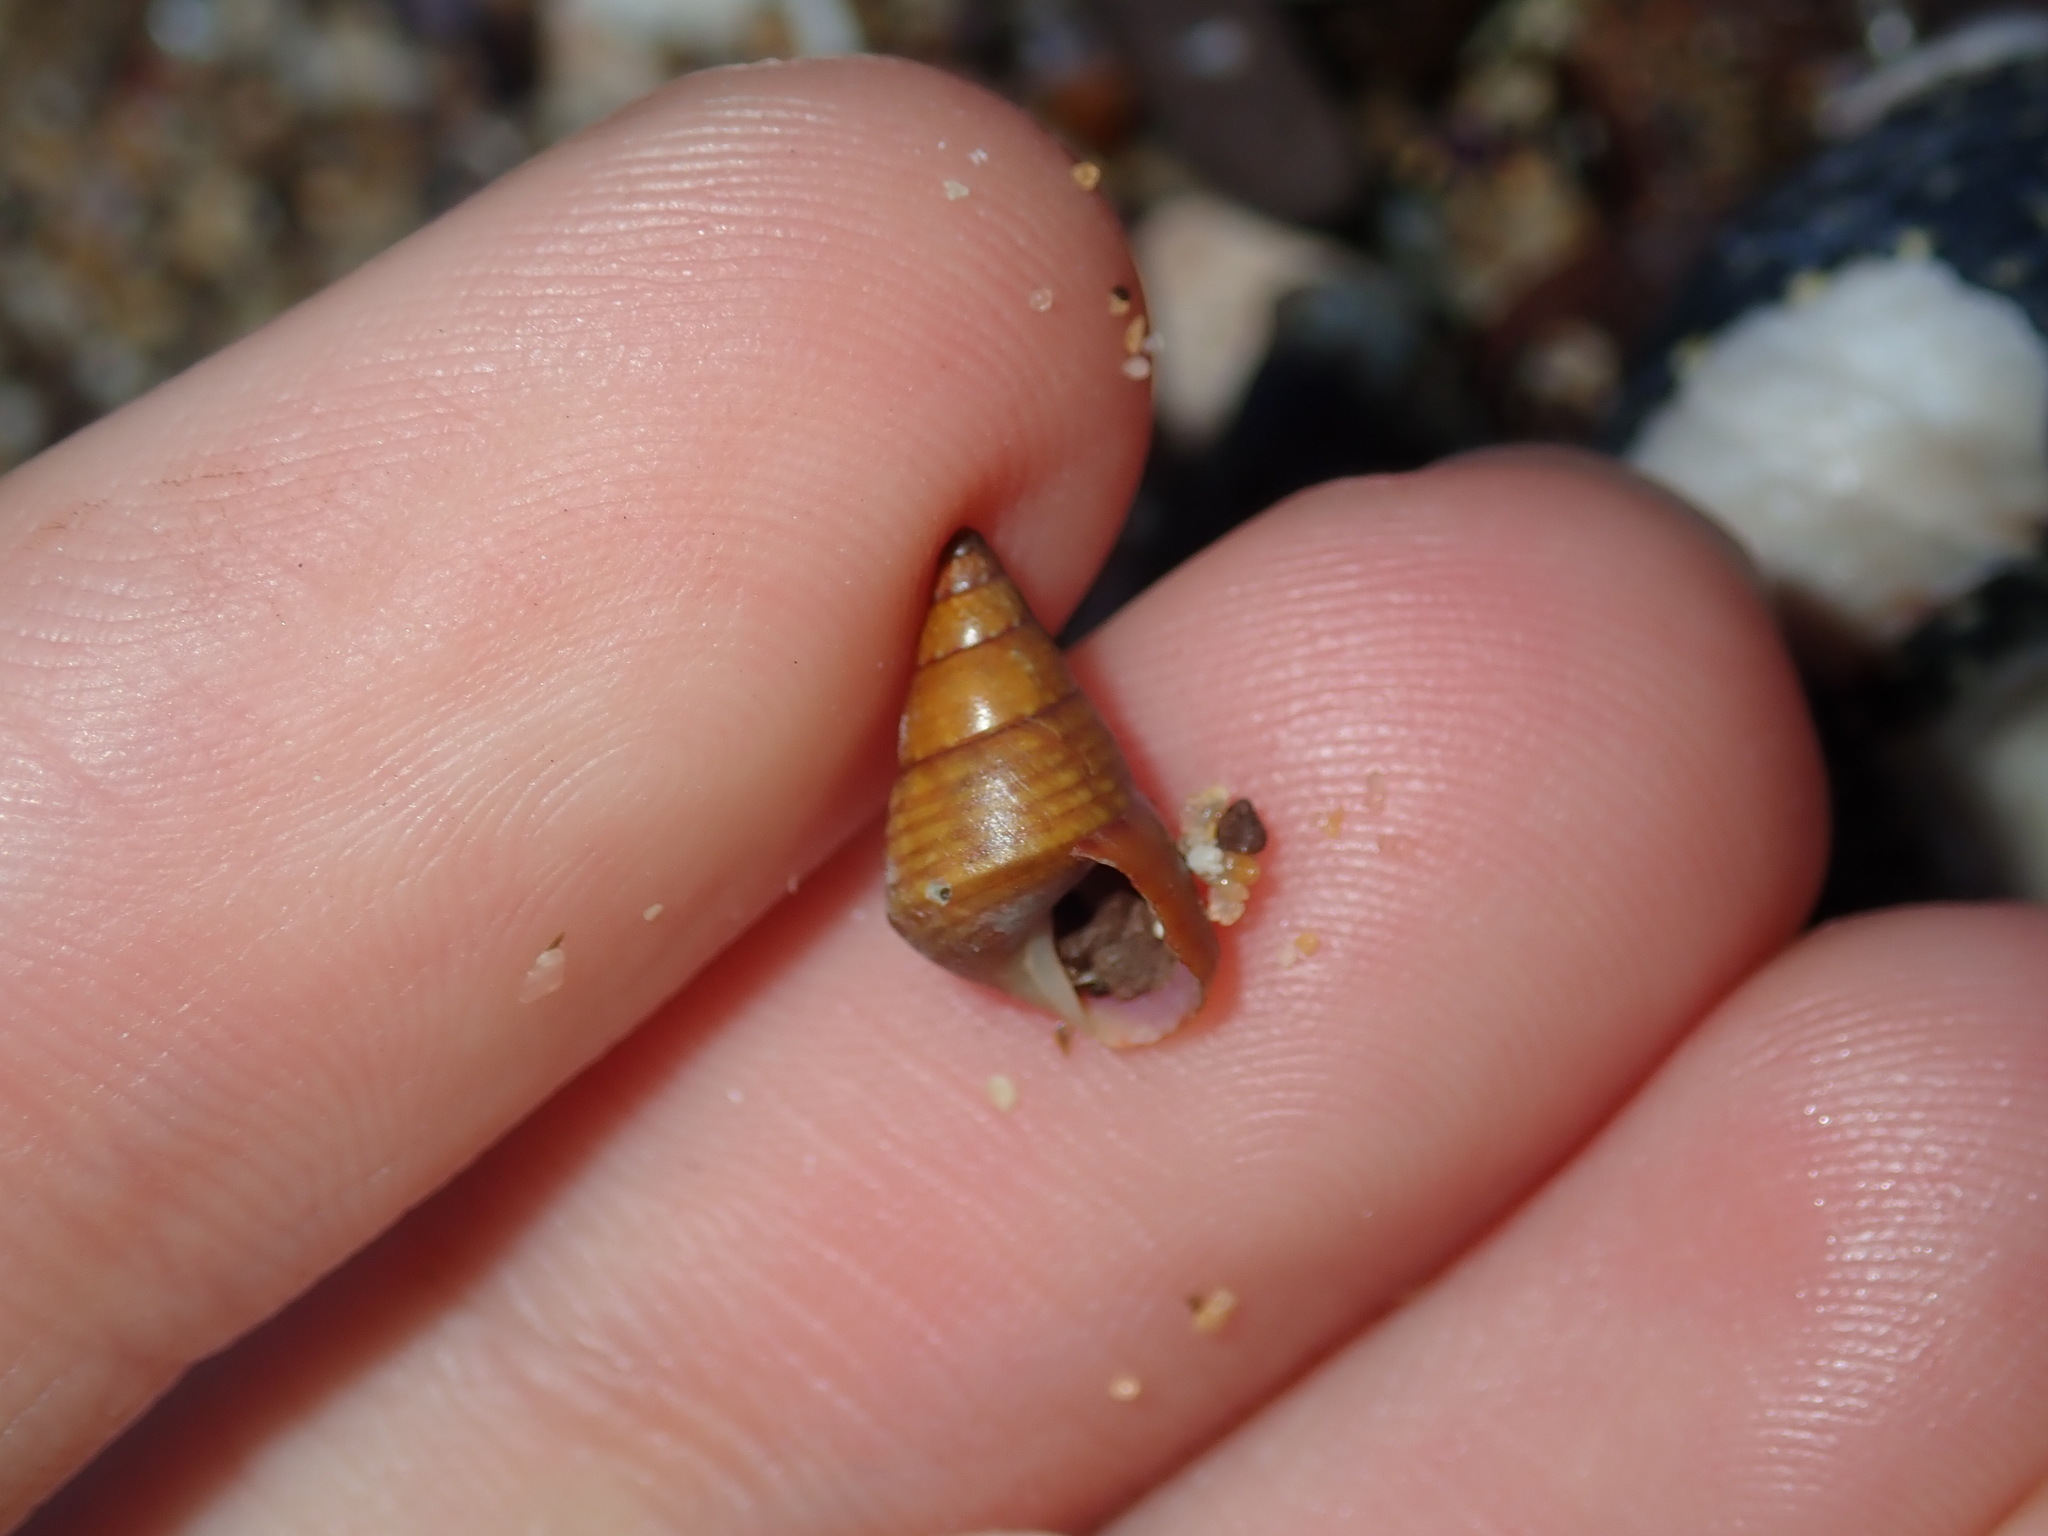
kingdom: Animalia
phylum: Mollusca
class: Gastropoda
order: Trochida
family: Trochidae
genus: Phasianotrochus
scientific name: Phasianotrochus eximius
